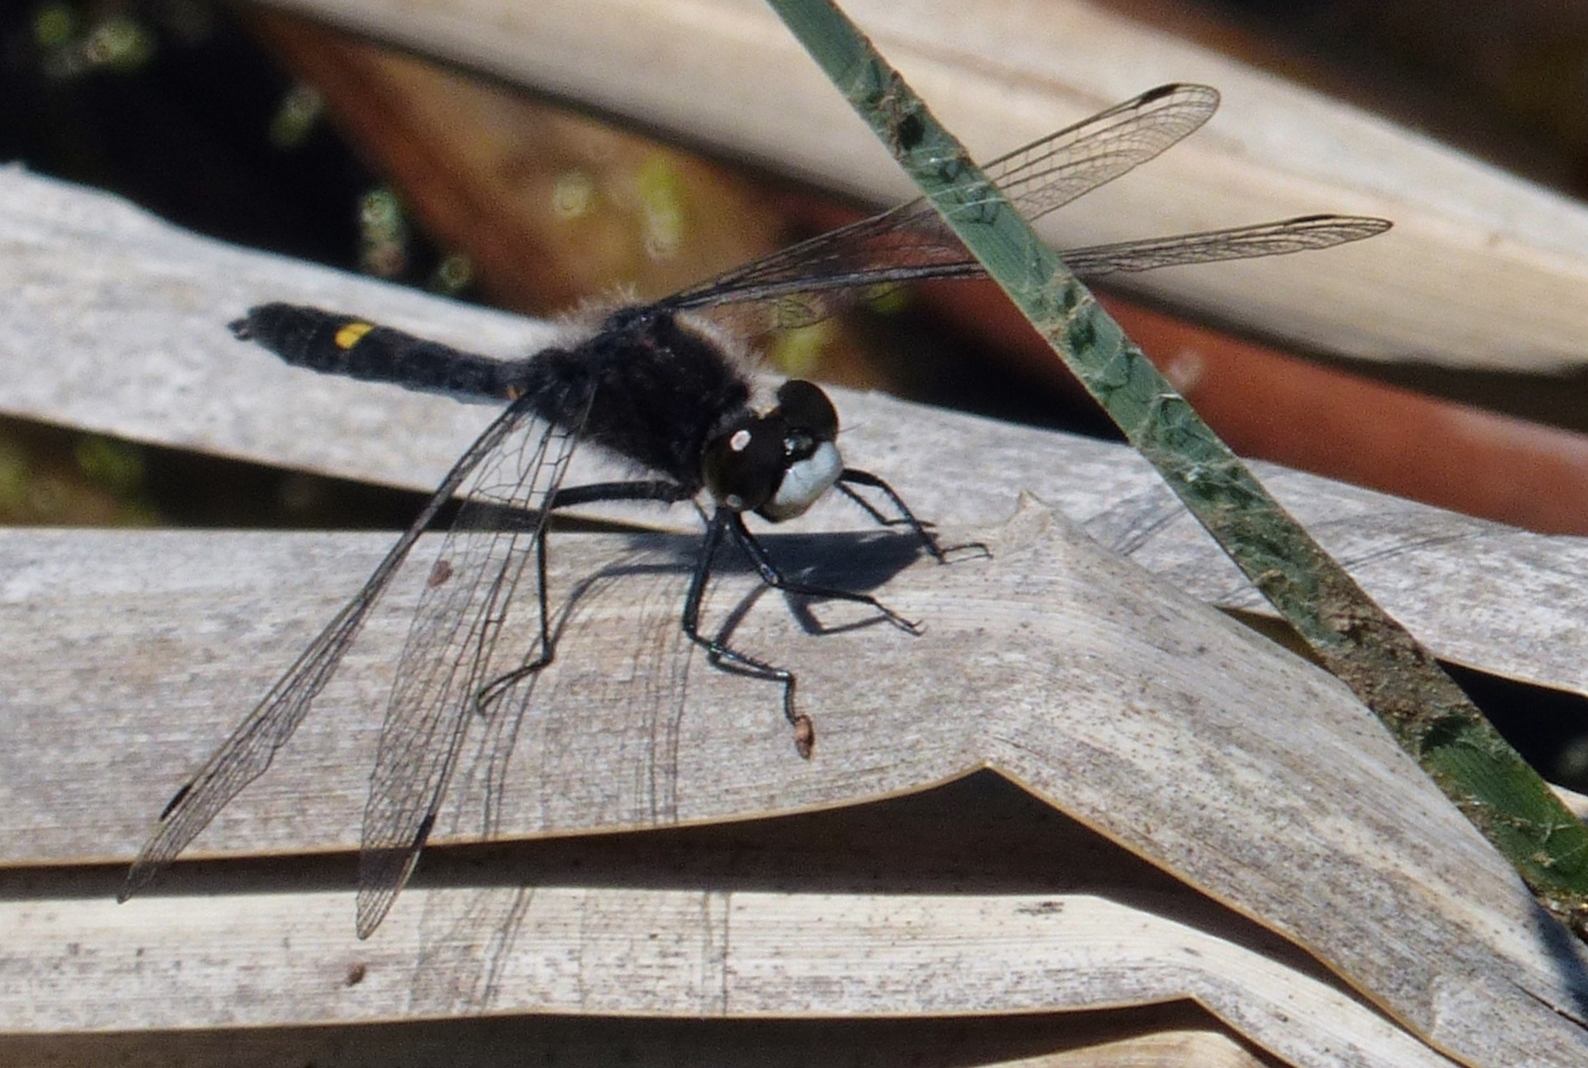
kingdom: Animalia
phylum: Arthropoda
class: Insecta
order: Odonata
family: Libellulidae
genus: Leucorrhinia
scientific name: Leucorrhinia intacta
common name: Dot-tailed whiteface
